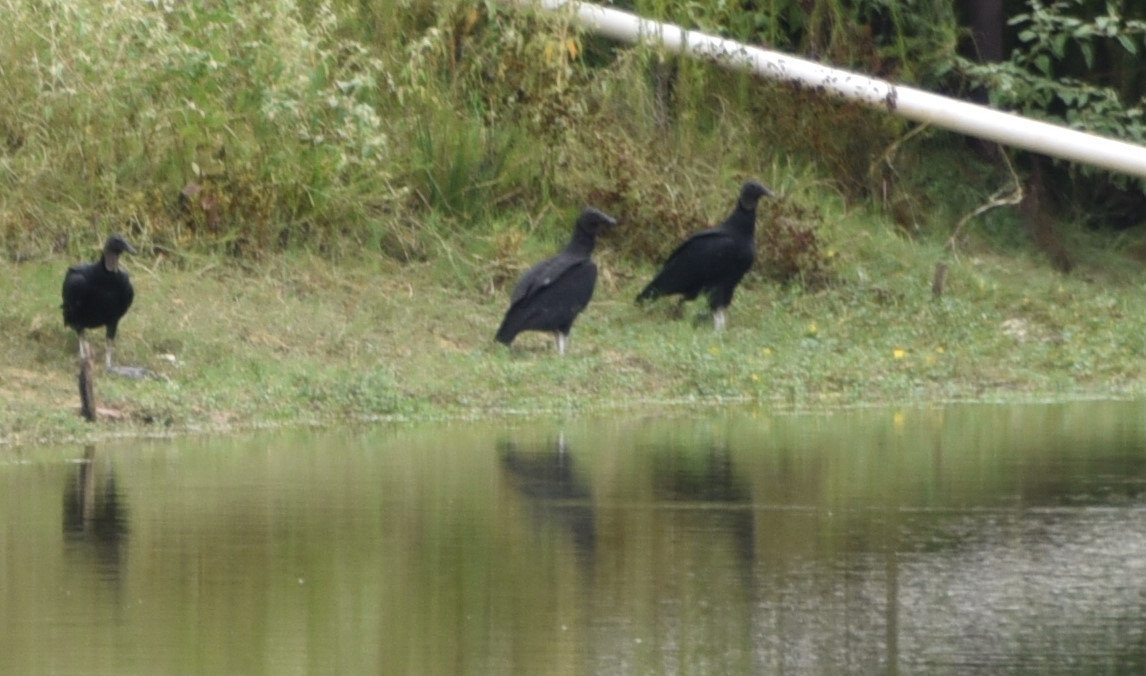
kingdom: Animalia
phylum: Chordata
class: Aves
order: Accipitriformes
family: Cathartidae
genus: Coragyps
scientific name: Coragyps atratus
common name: Black vulture
